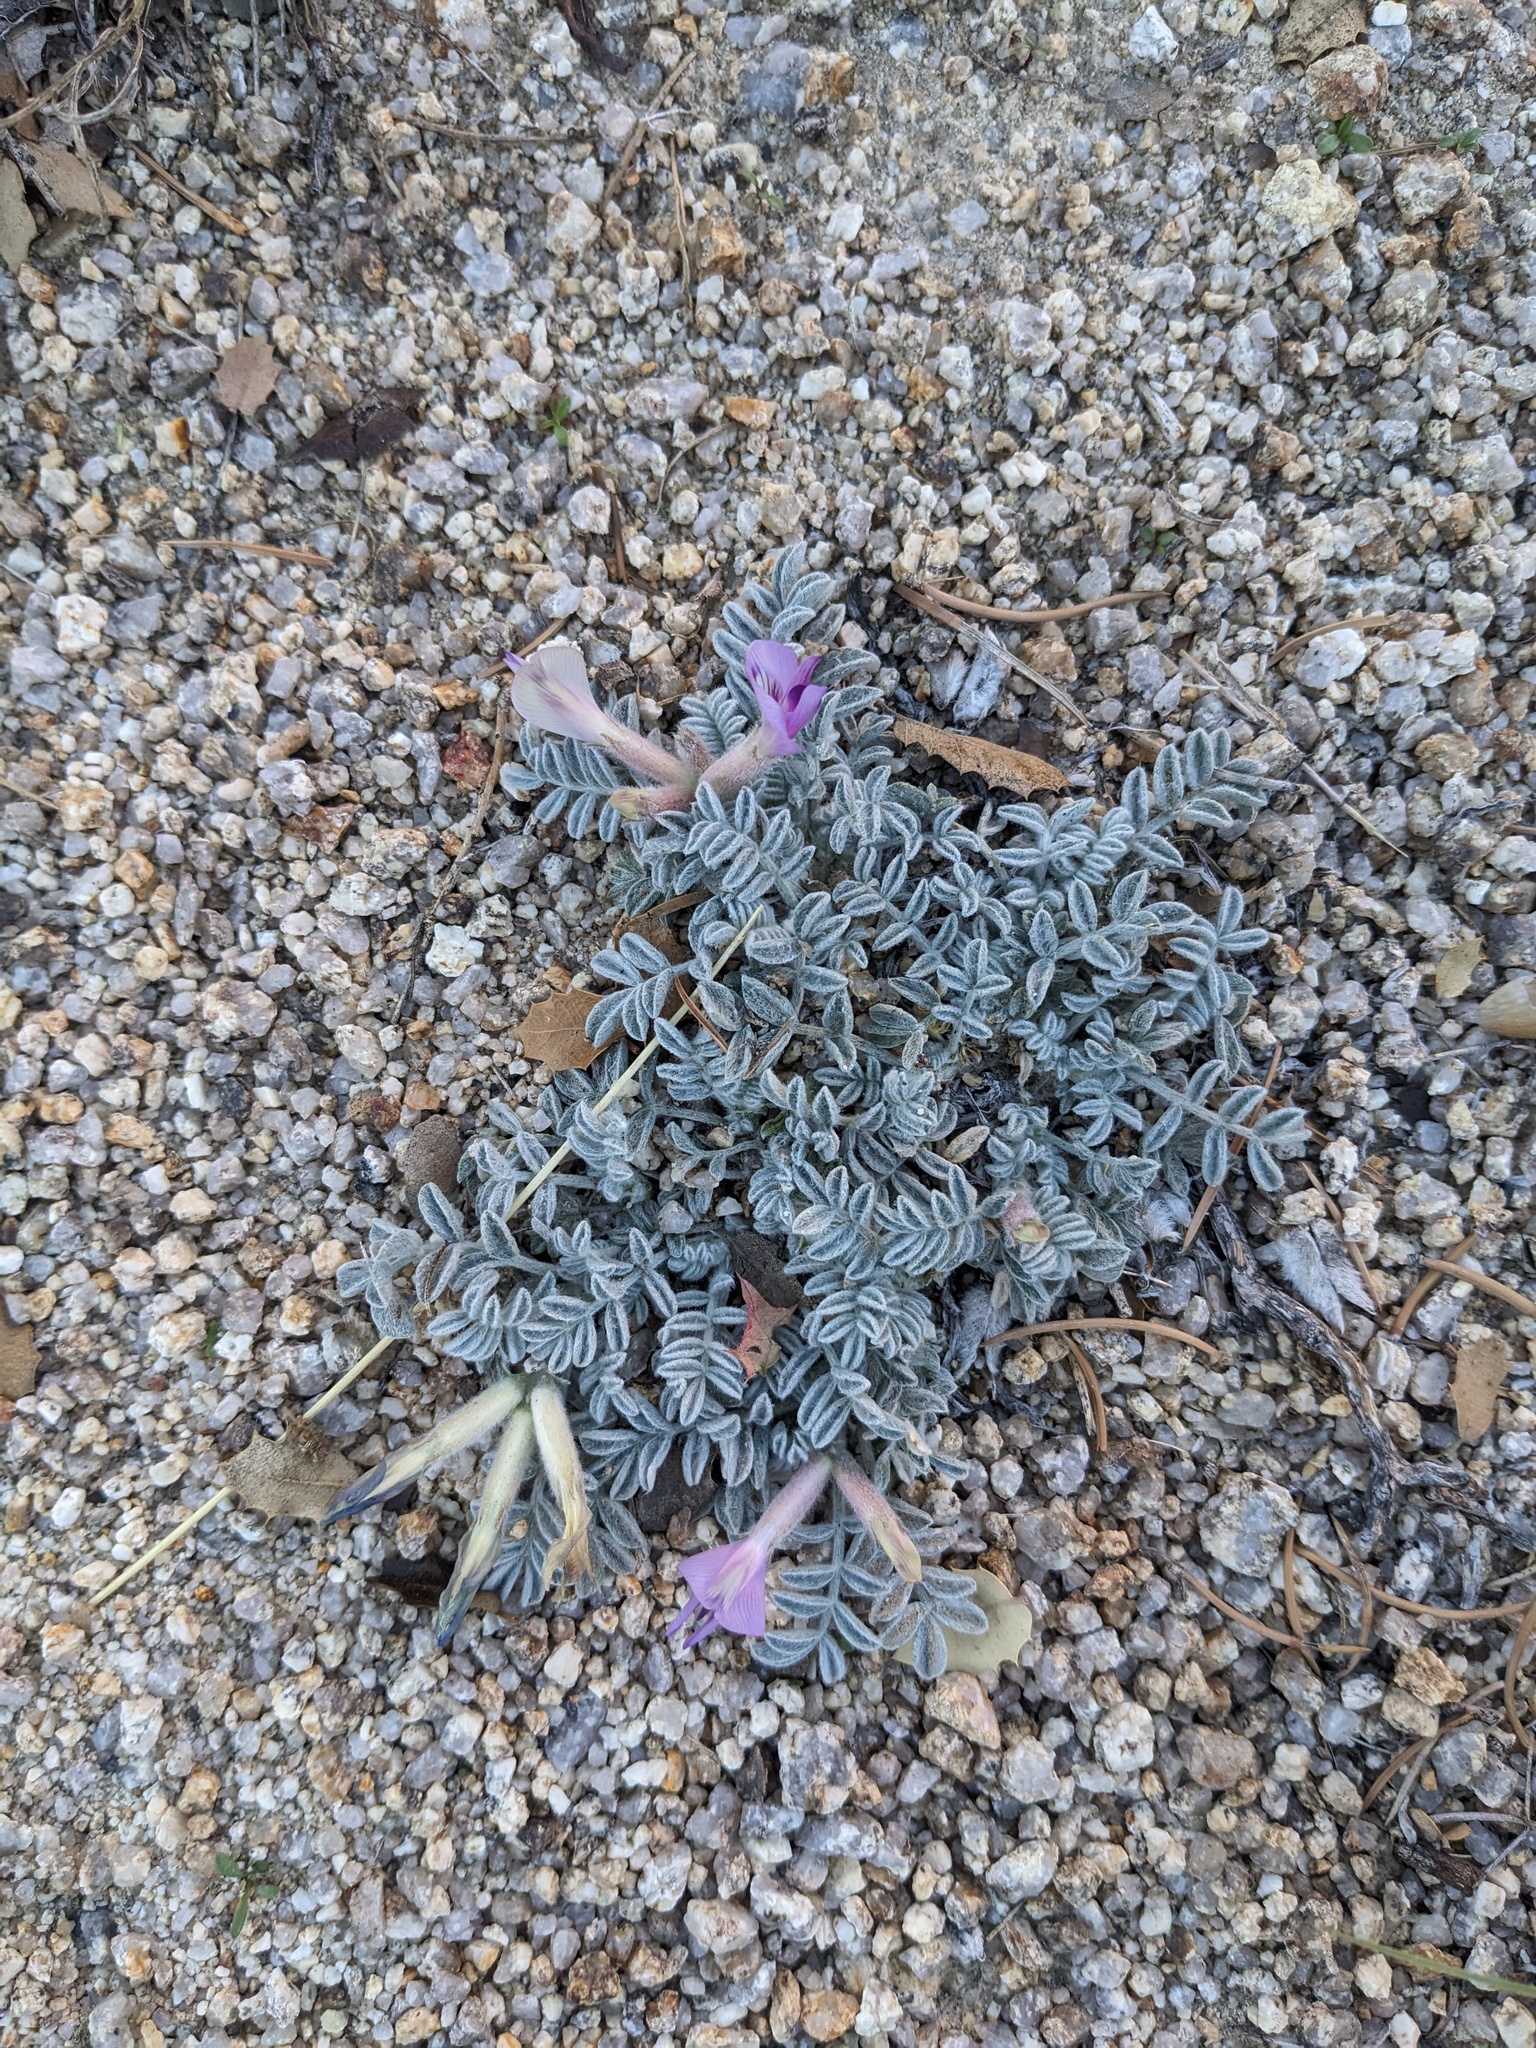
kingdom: Plantae
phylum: Tracheophyta
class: Magnoliopsida
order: Fabales
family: Fabaceae
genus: Astragalus
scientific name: Astragalus purshii
